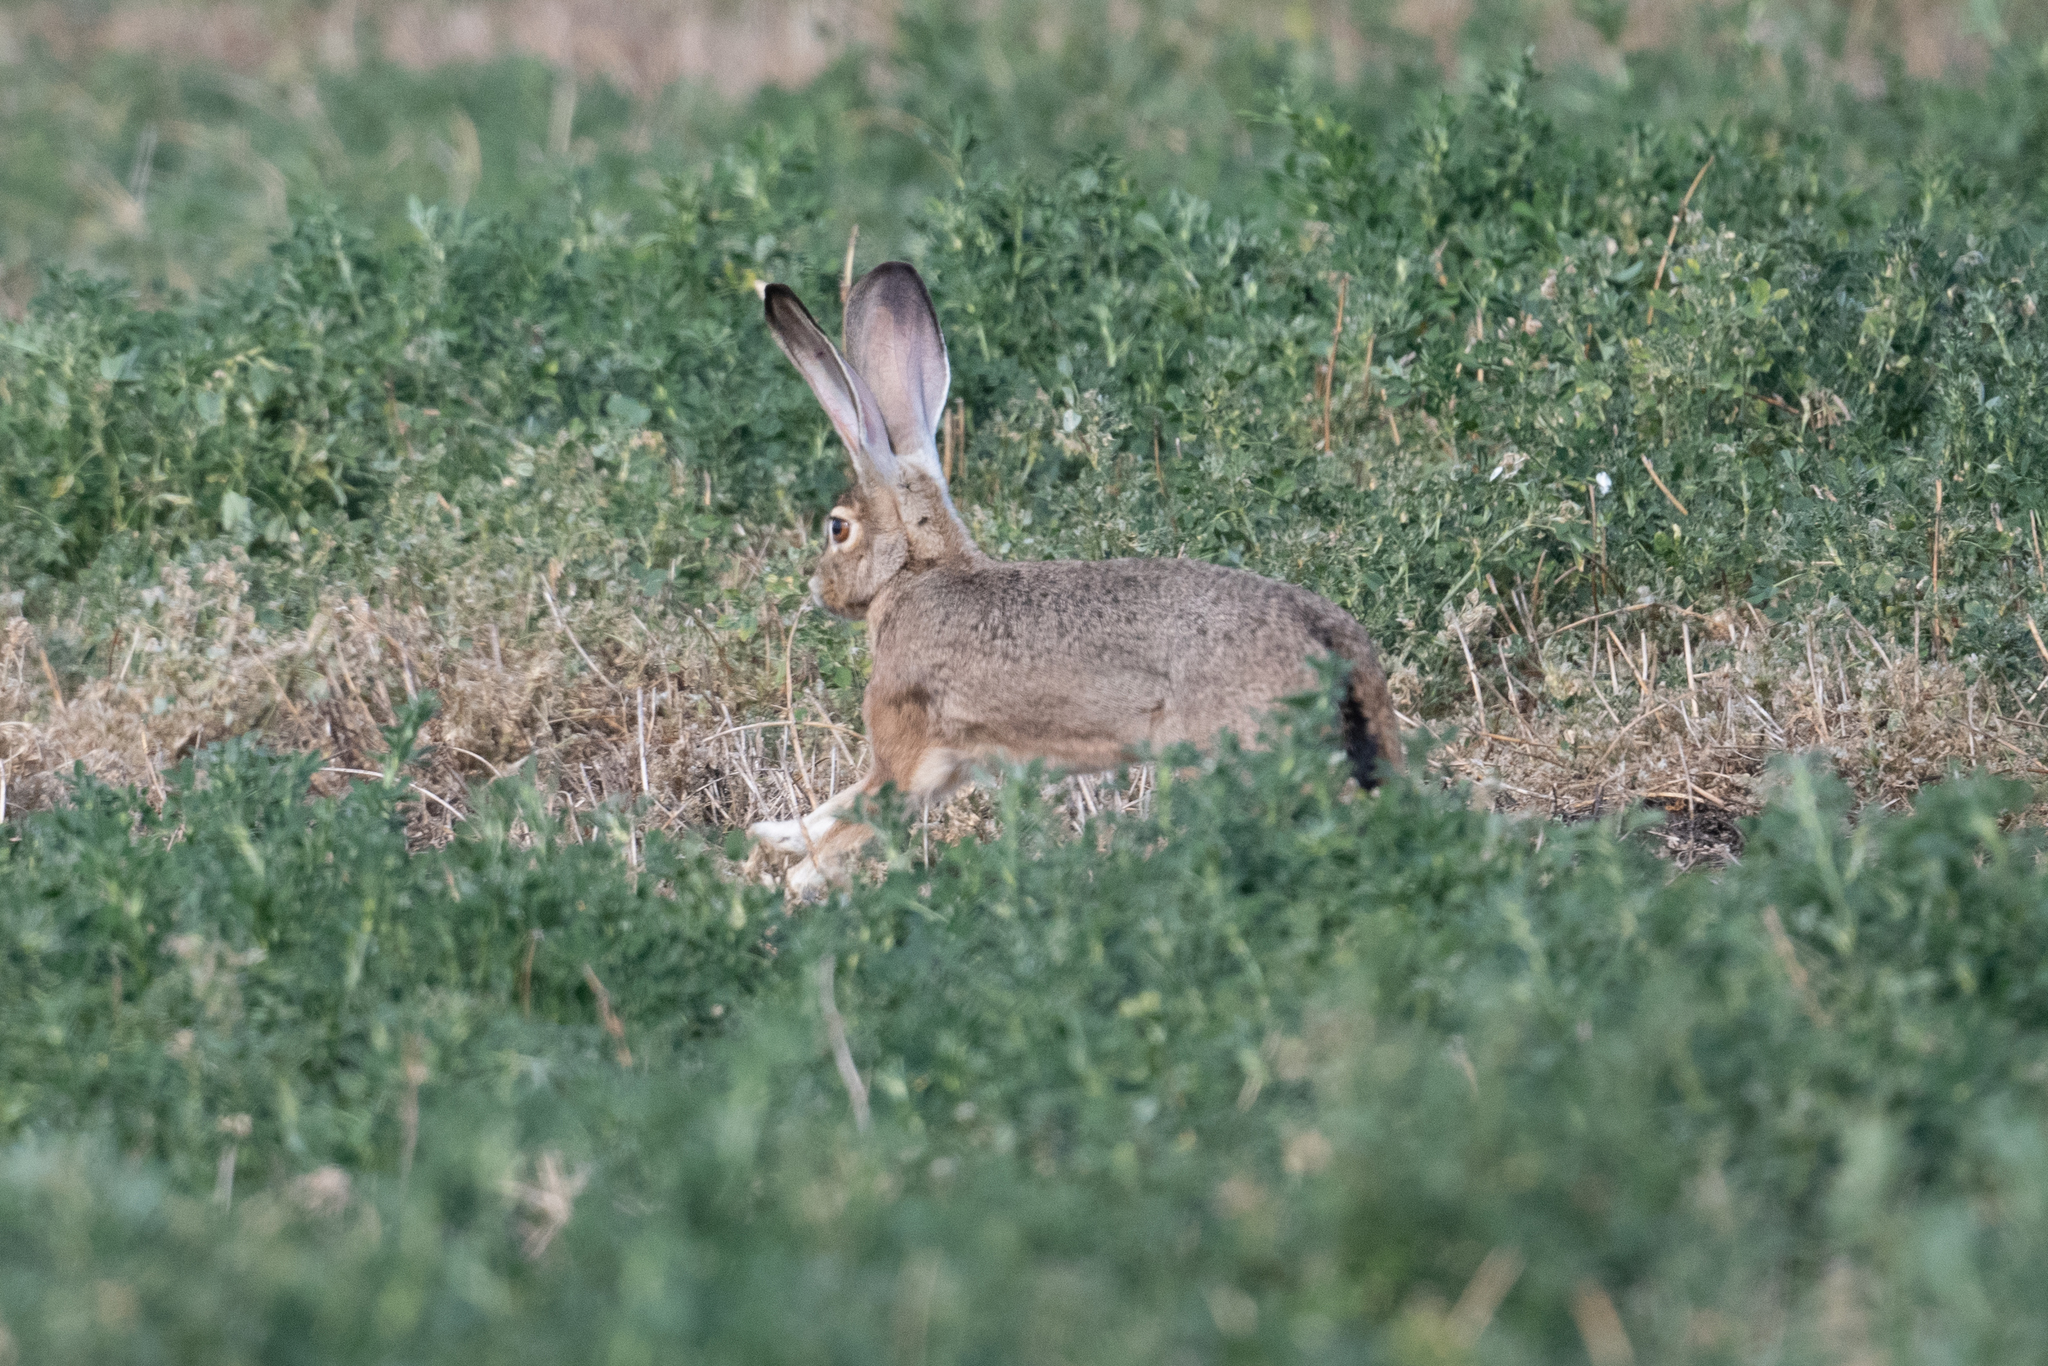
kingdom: Animalia
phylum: Chordata
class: Mammalia
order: Lagomorpha
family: Leporidae
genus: Lepus
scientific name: Lepus californicus
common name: Black-tailed jackrabbit
